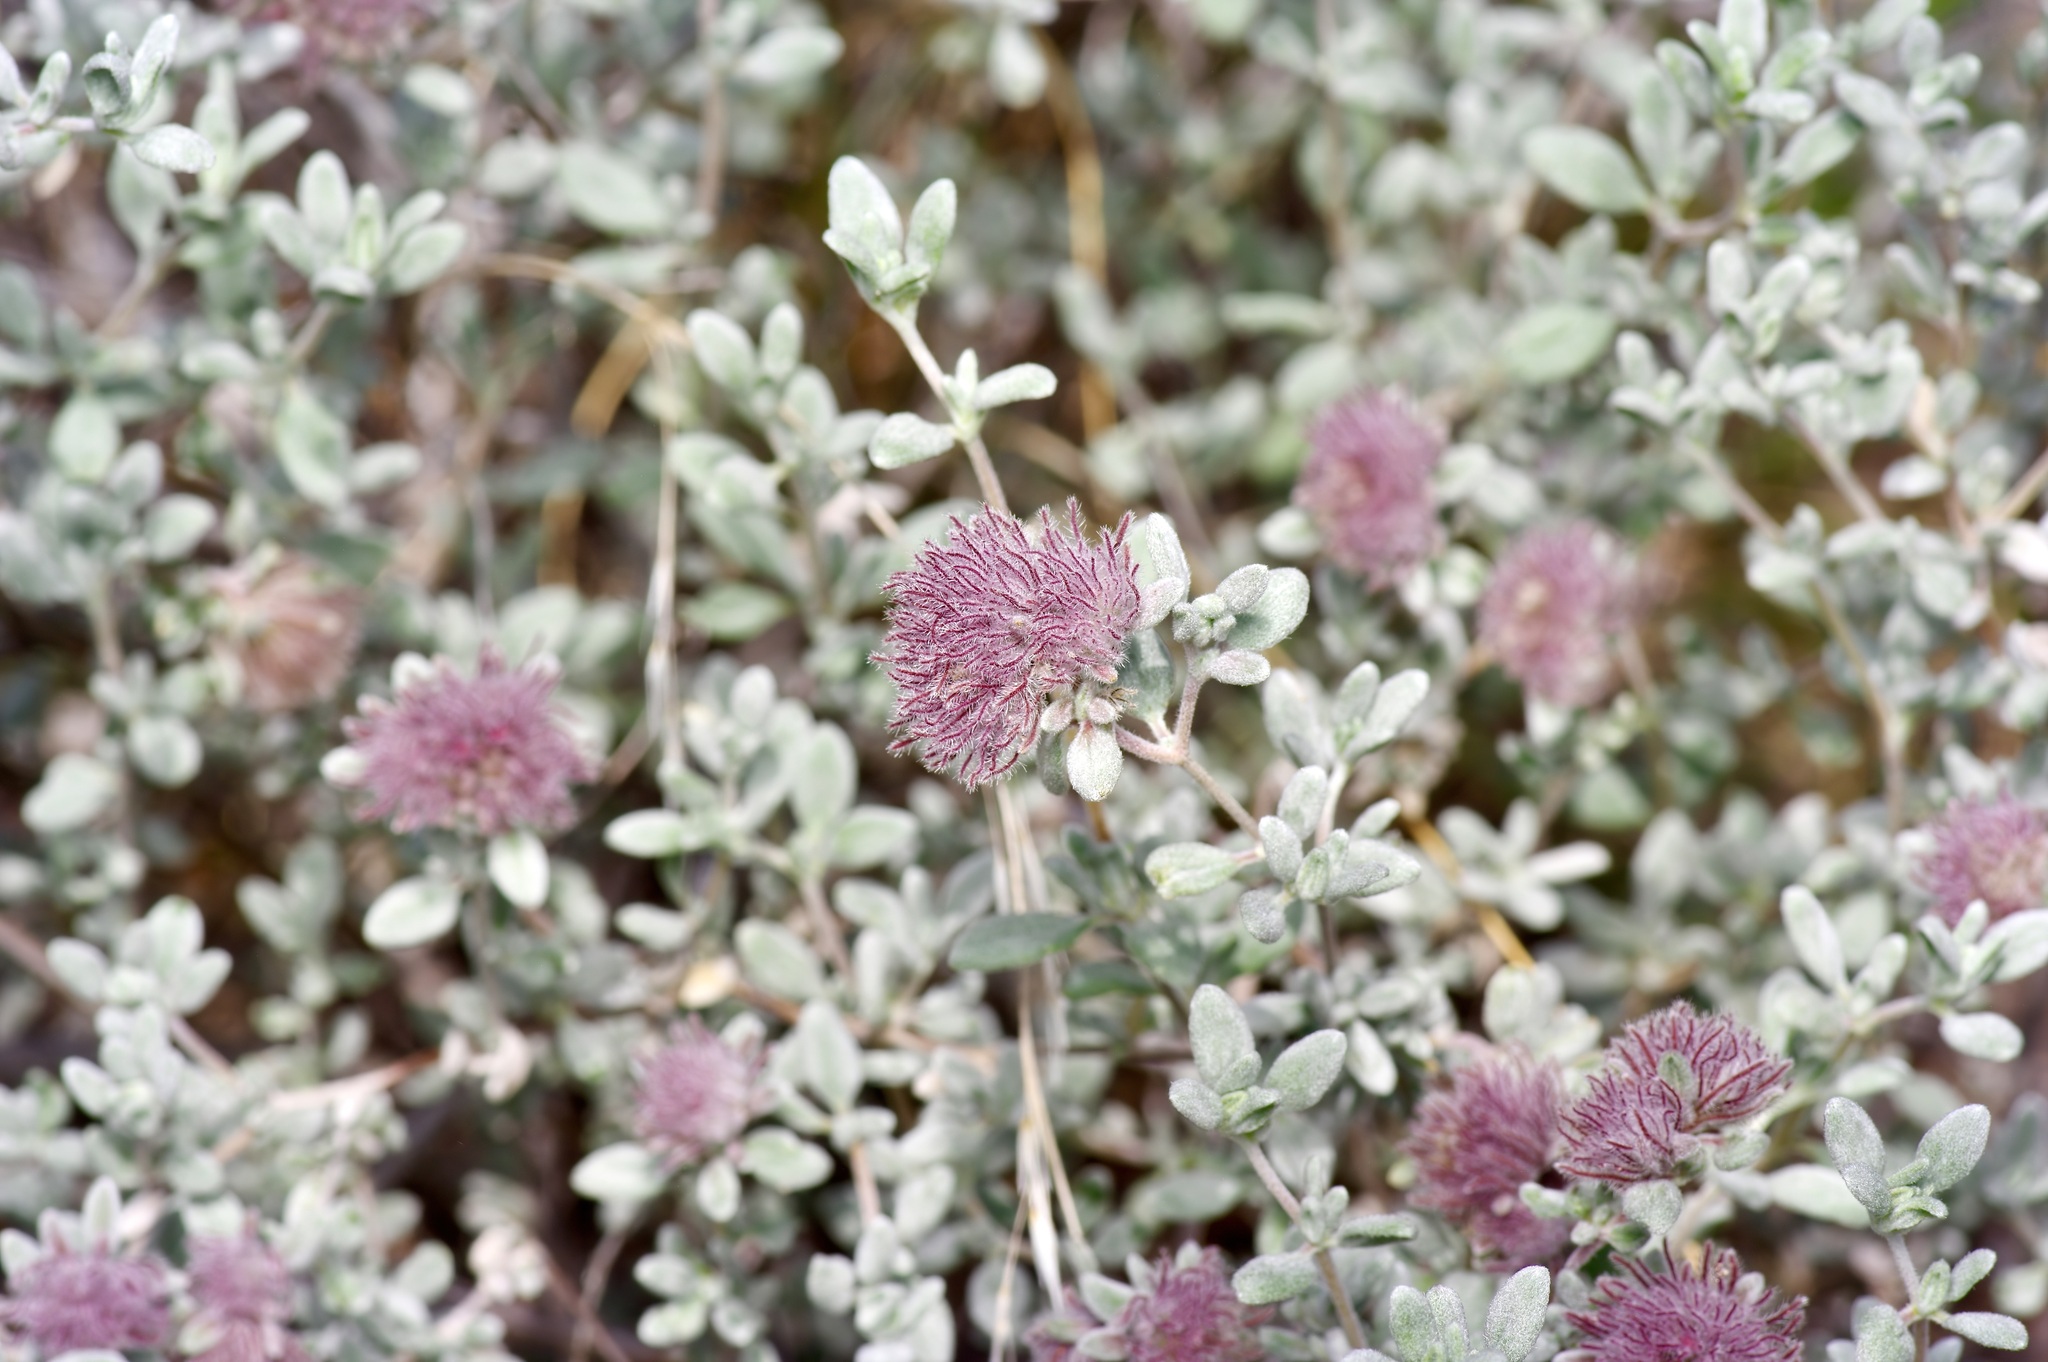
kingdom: Plantae
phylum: Tracheophyta
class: Magnoliopsida
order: Boraginales
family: Ehretiaceae
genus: Tiquilia
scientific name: Tiquilia greggii
